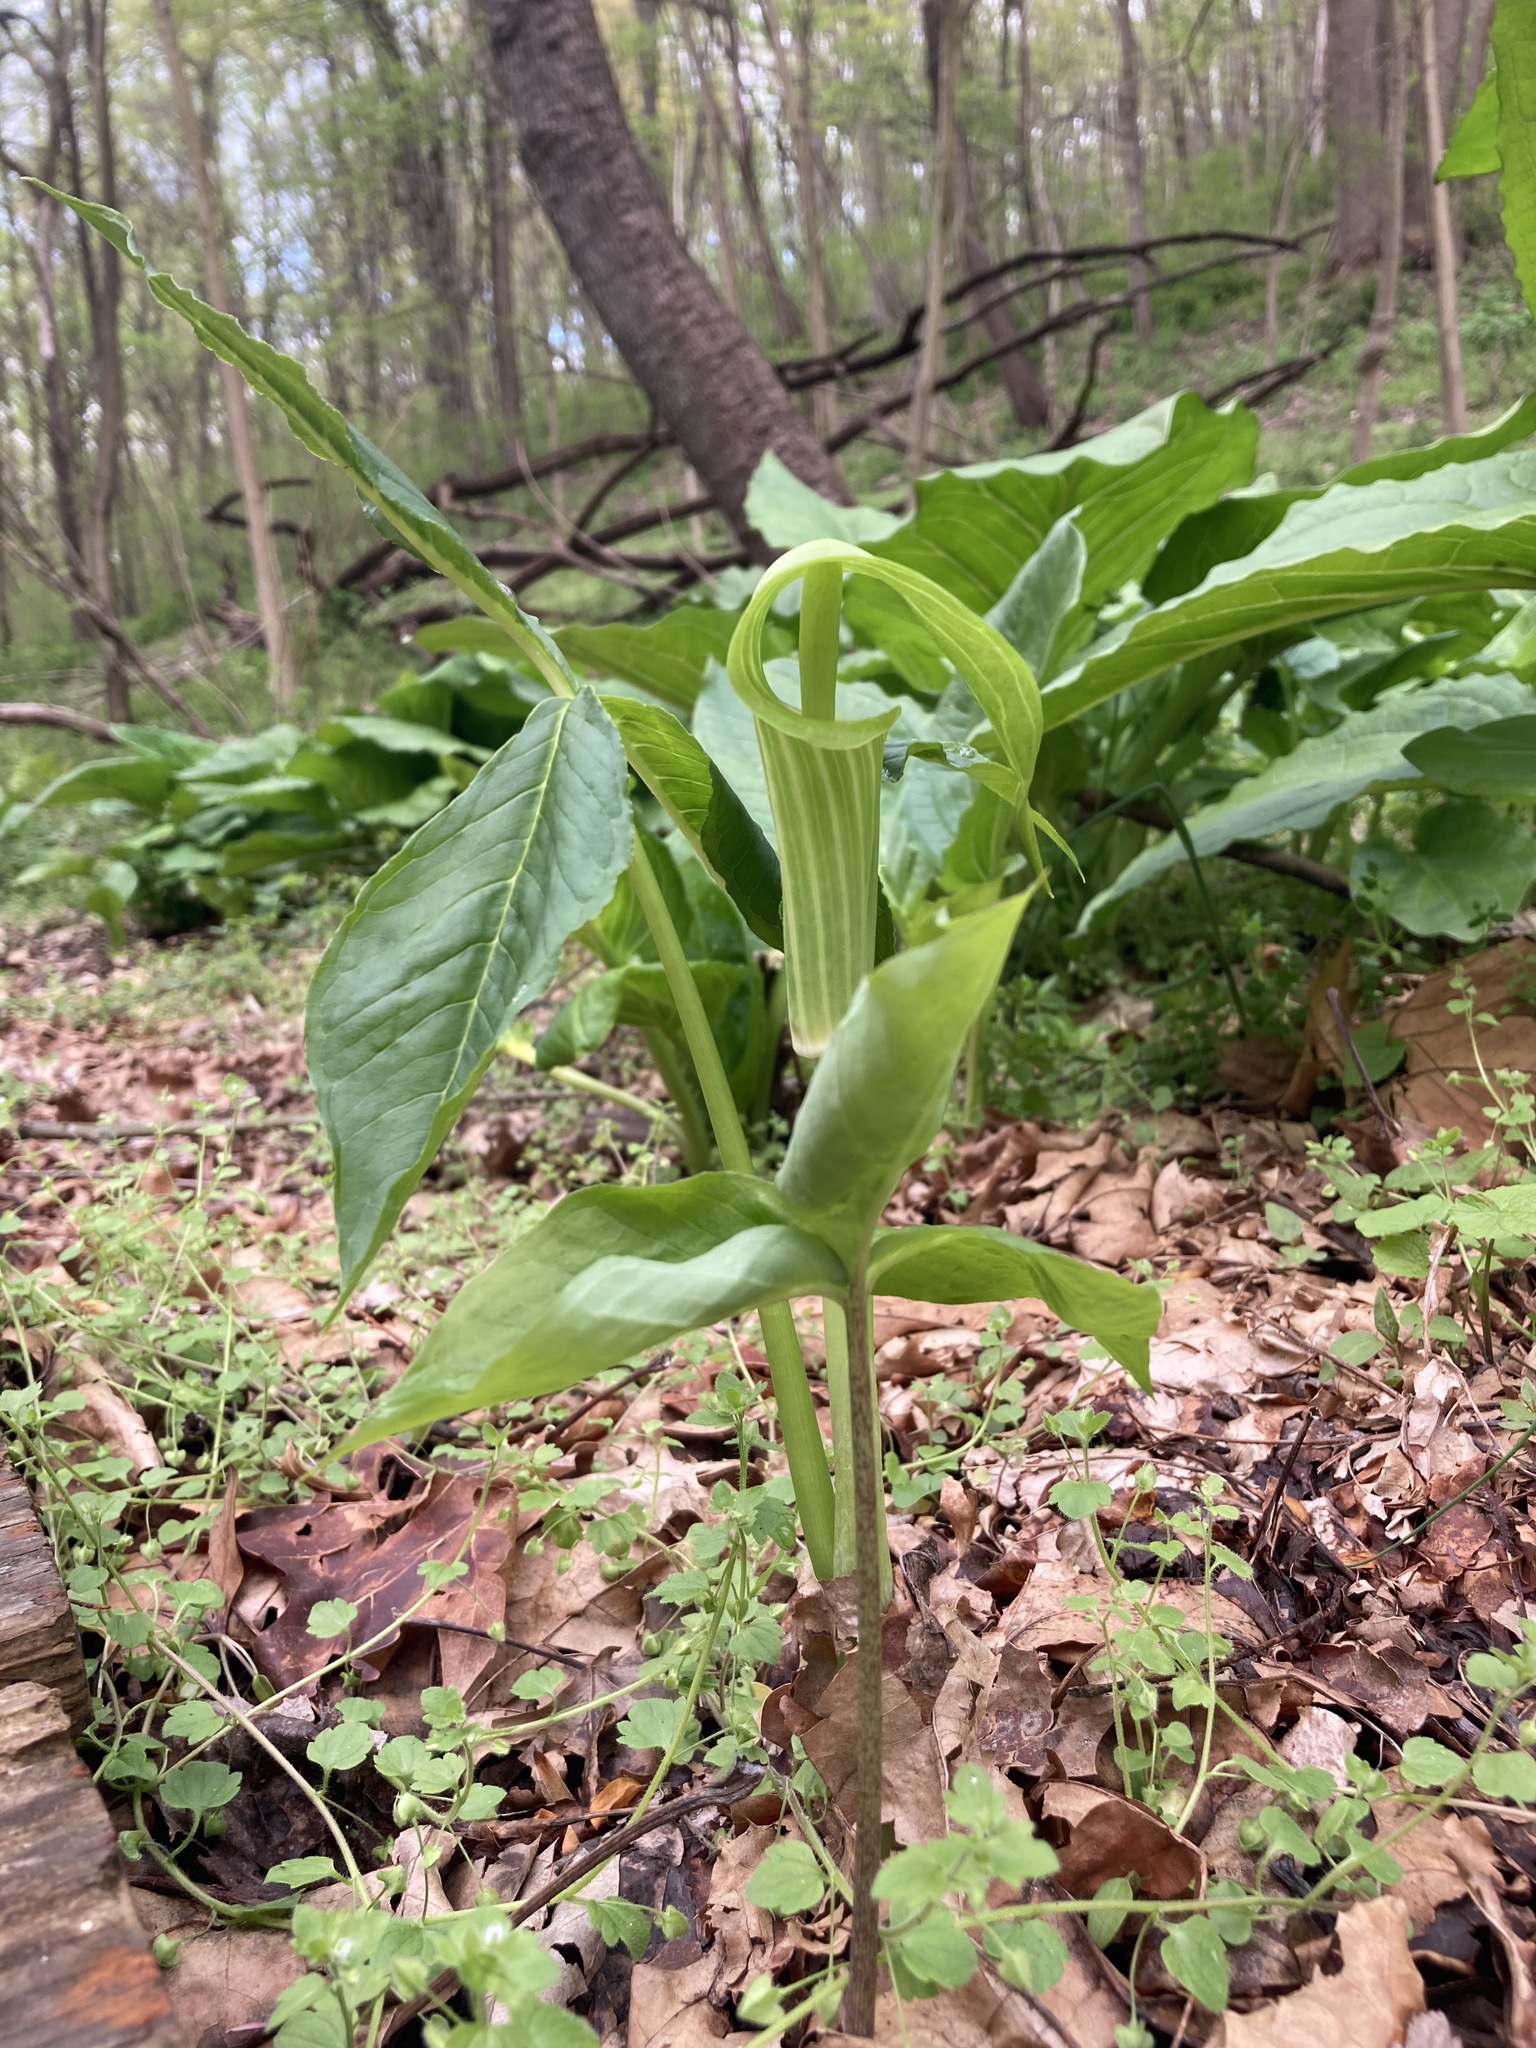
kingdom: Plantae
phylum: Tracheophyta
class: Liliopsida
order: Alismatales
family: Araceae
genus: Arisaema
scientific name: Arisaema triphyllum
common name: Jack-in-the-pulpit
